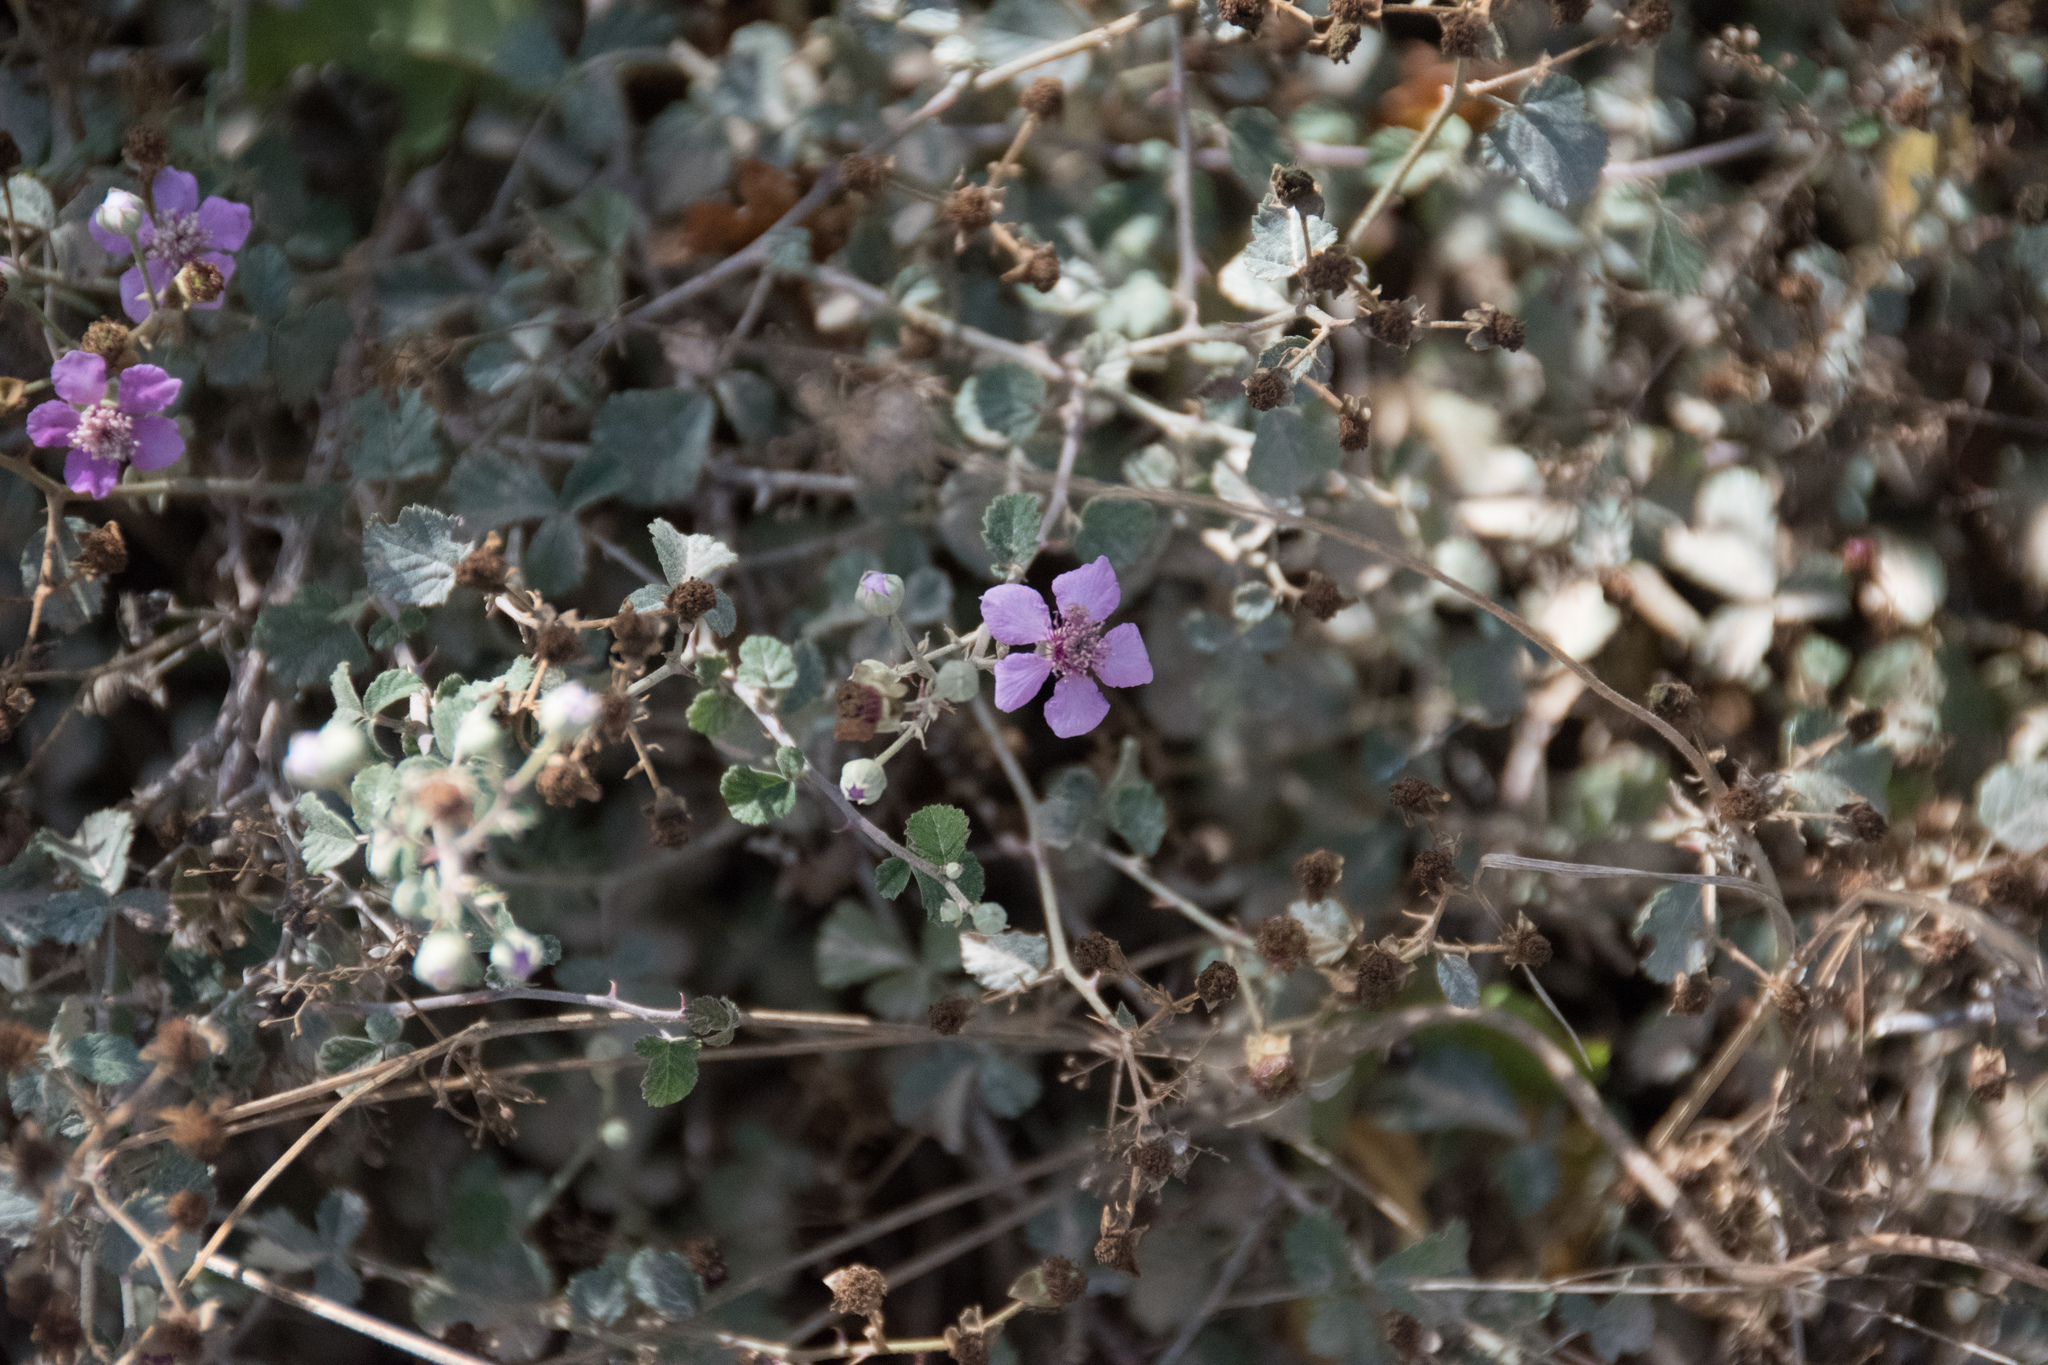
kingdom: Plantae
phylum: Tracheophyta
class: Magnoliopsida
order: Rosales
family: Rosaceae
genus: Rubus
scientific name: Rubus sanctus
